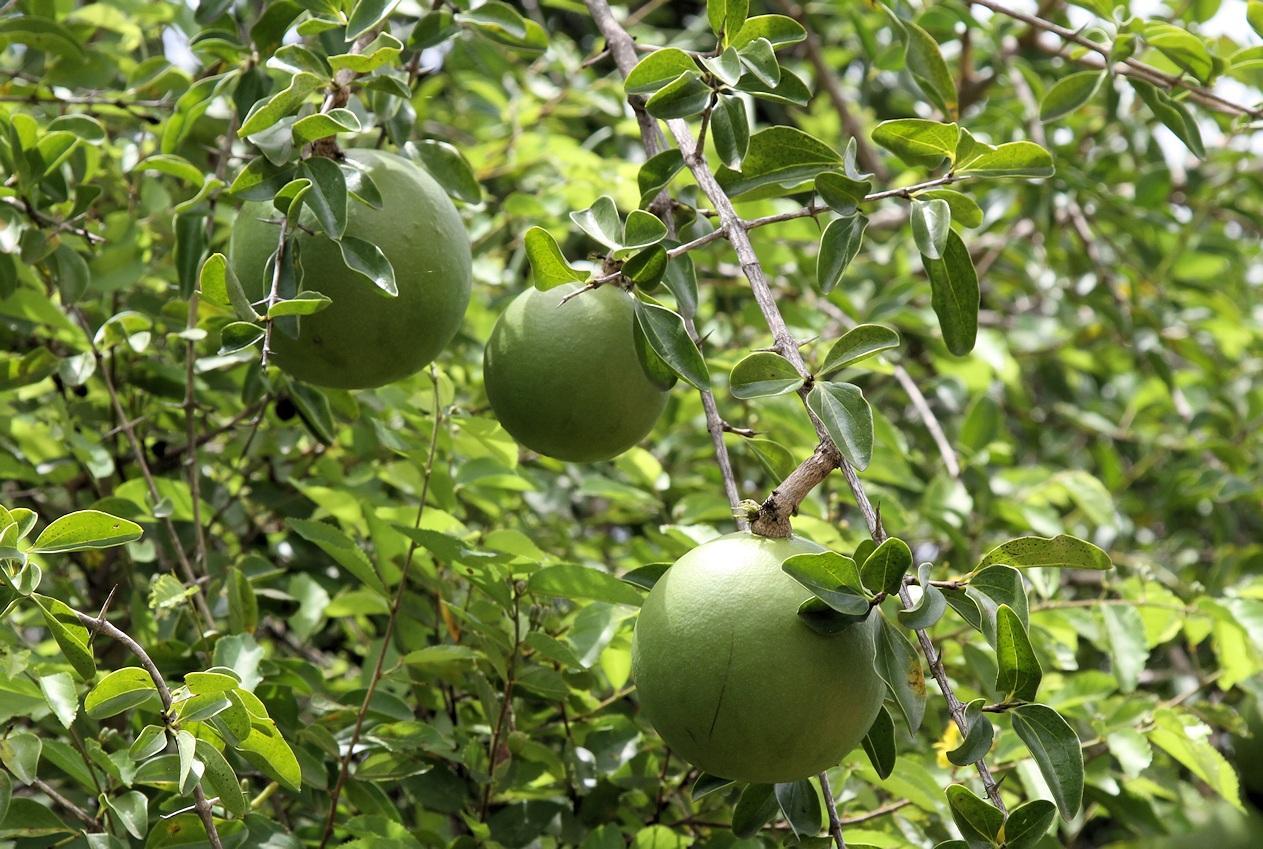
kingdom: Plantae
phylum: Tracheophyta
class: Magnoliopsida
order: Gentianales
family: Loganiaceae
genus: Strychnos
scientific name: Strychnos spinosa
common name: Natal orange
